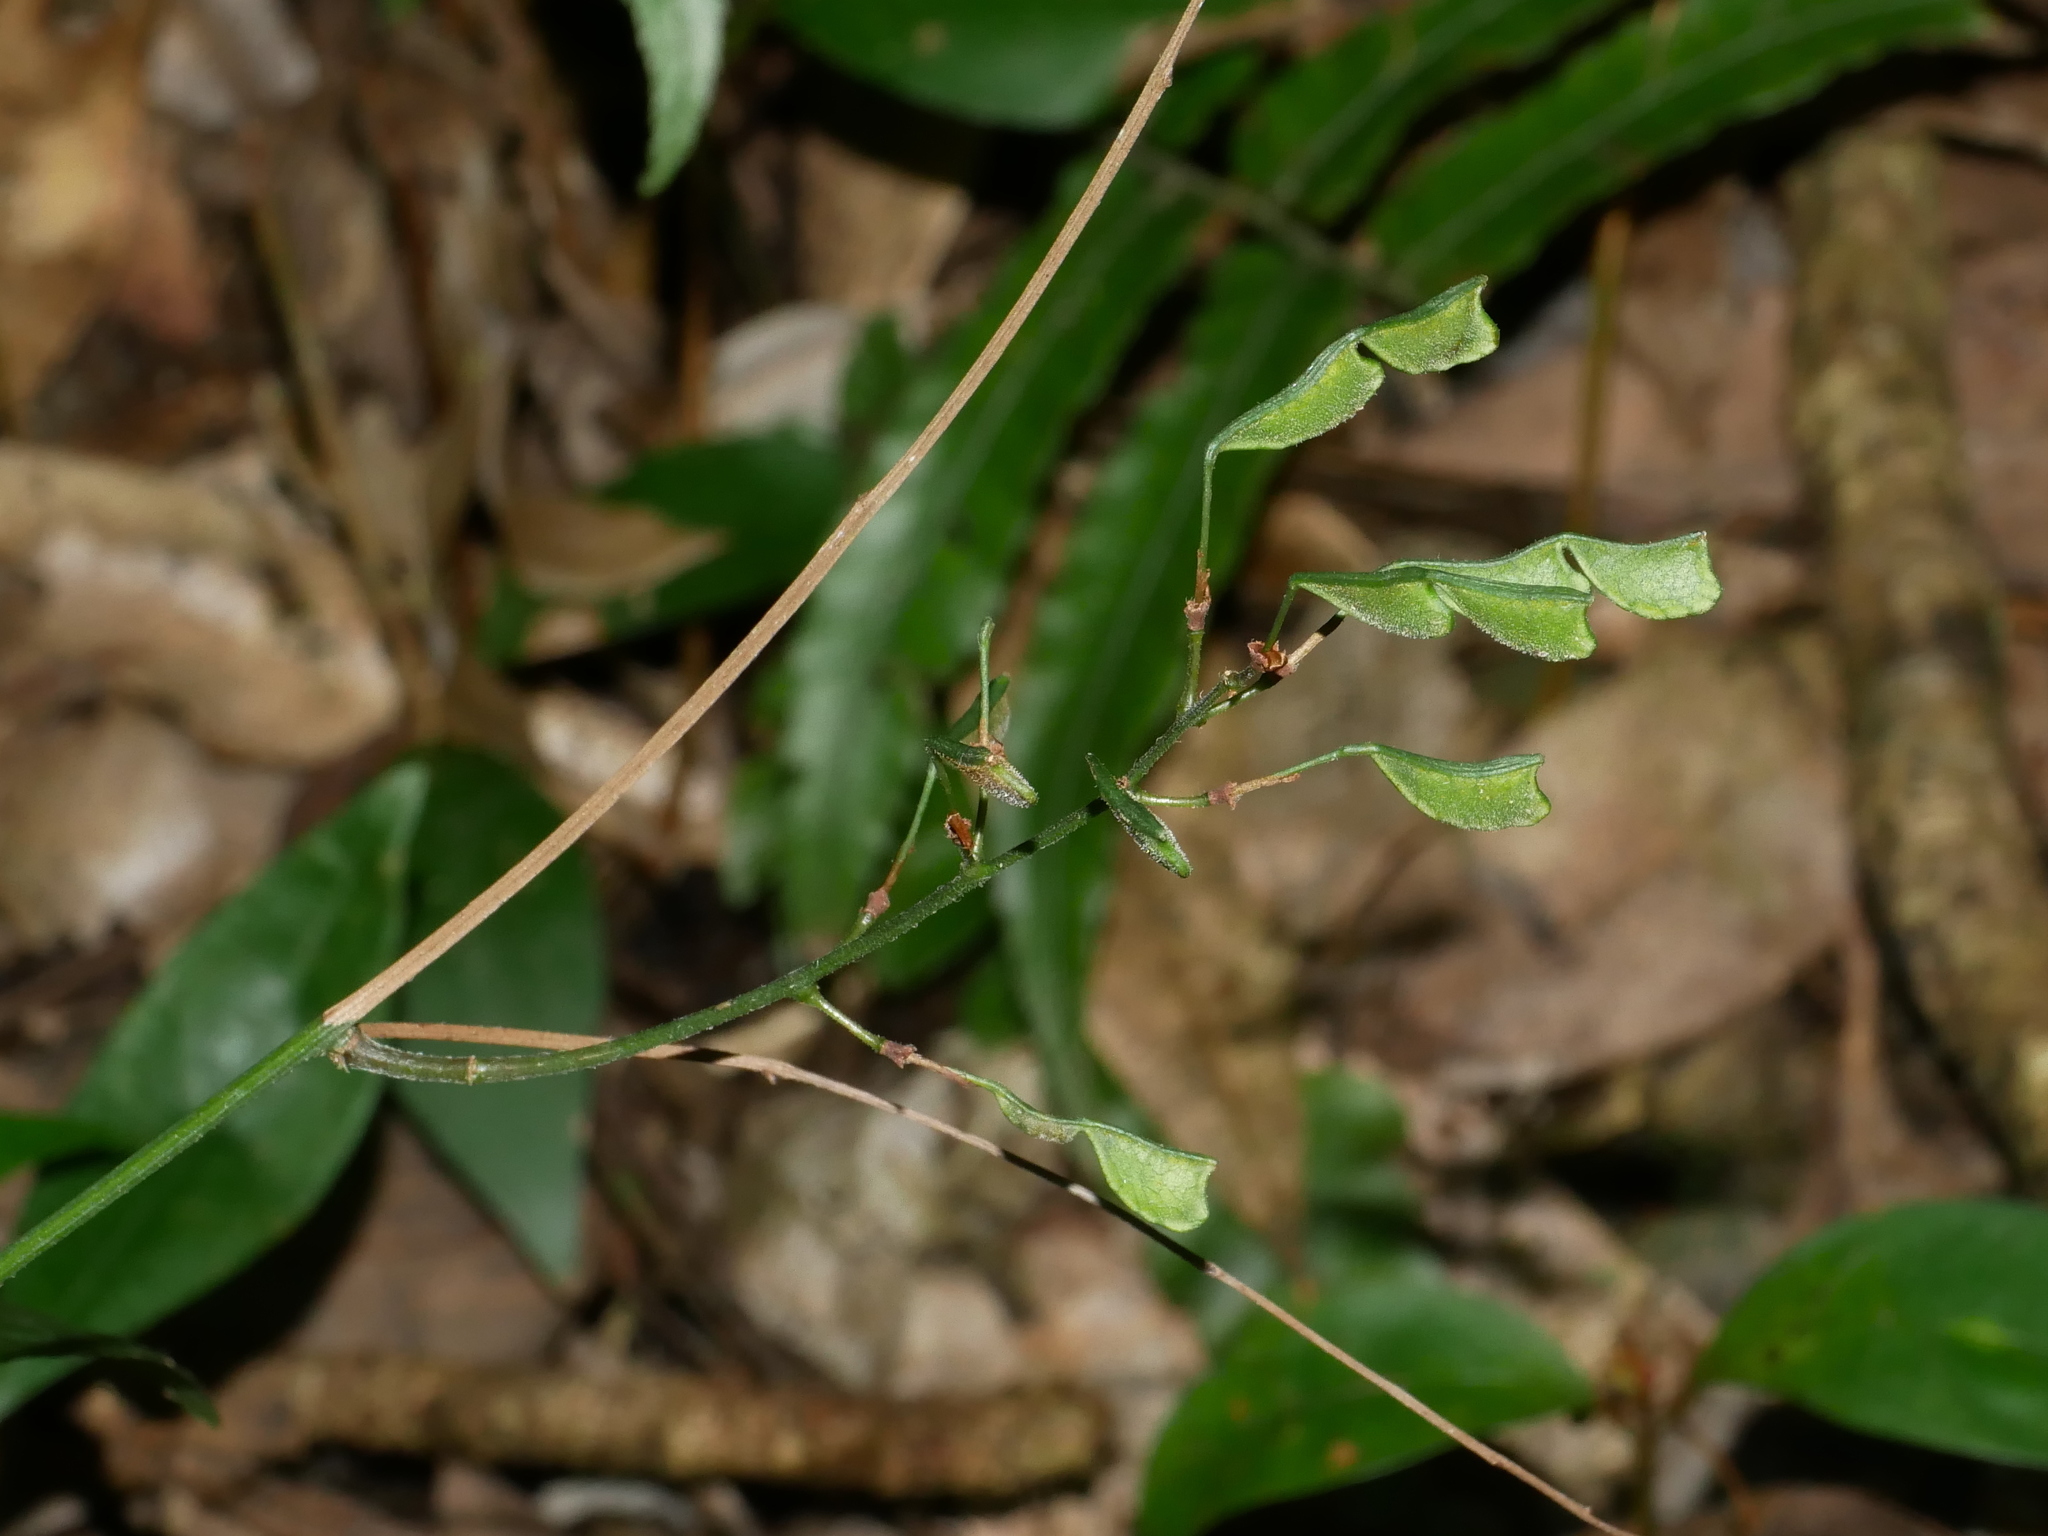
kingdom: Plantae
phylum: Tracheophyta
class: Magnoliopsida
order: Fabales
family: Fabaceae
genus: Hylodesmum
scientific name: Hylodesmum laxum
